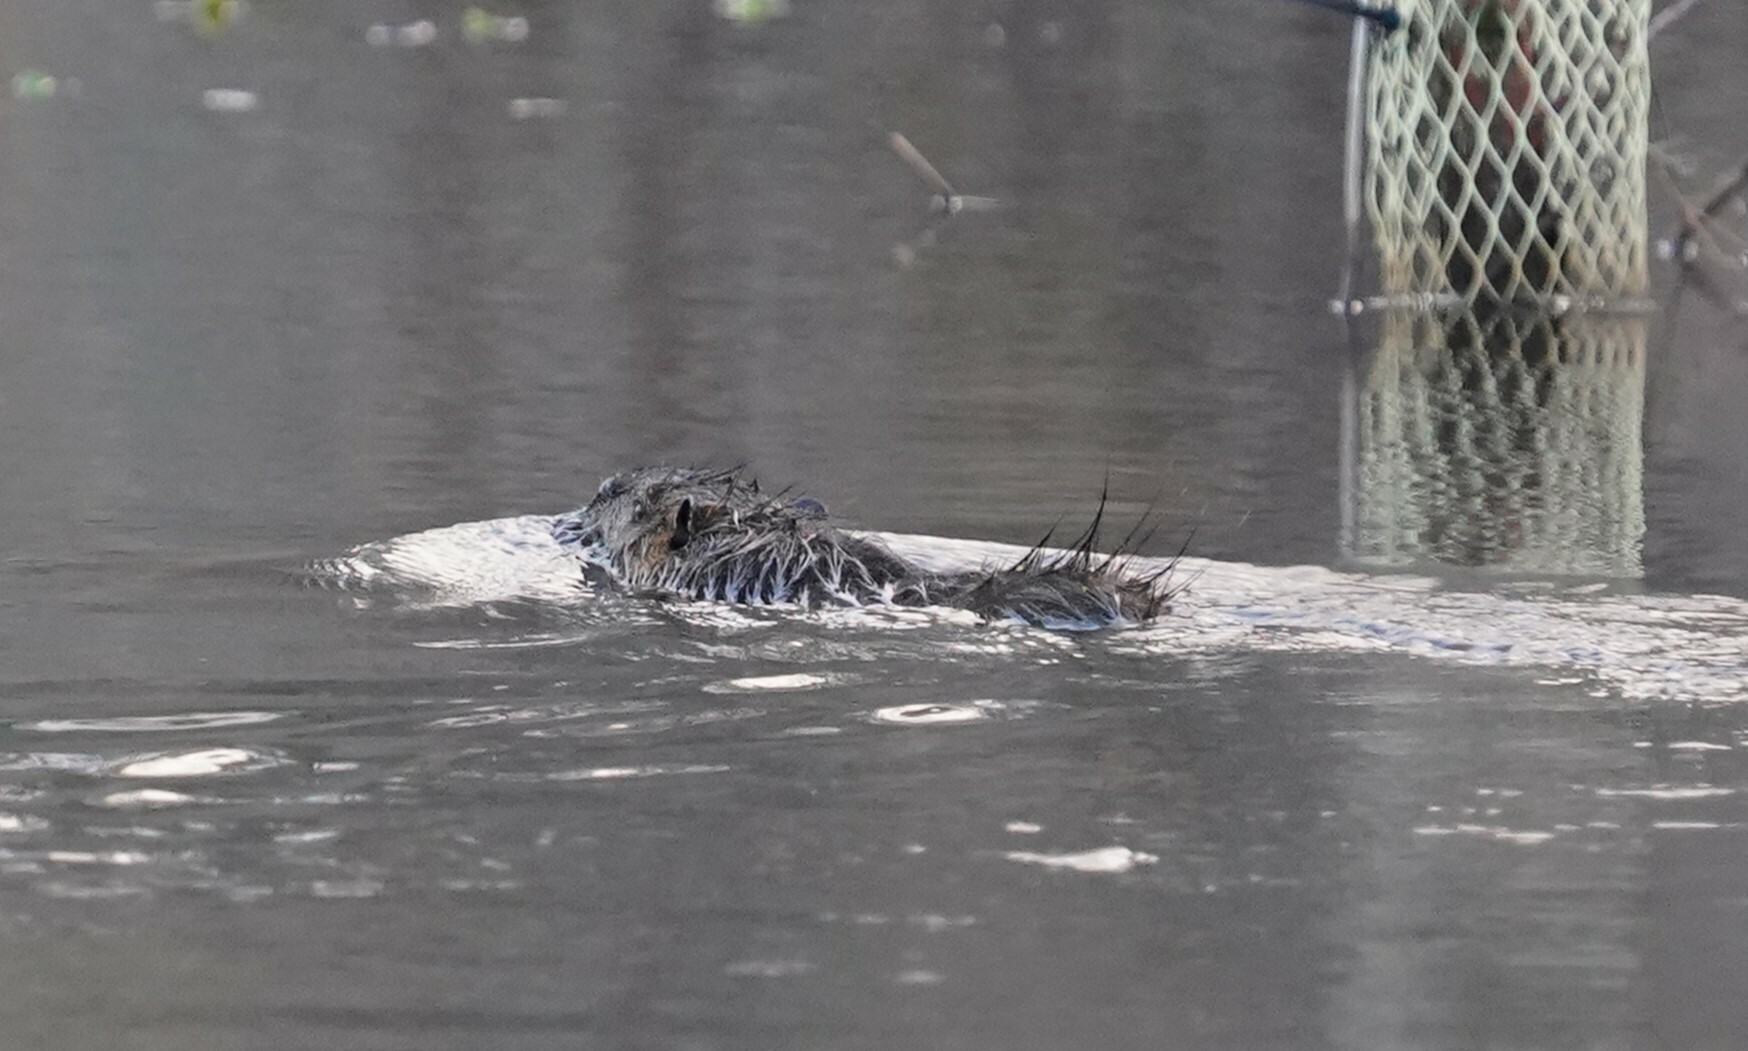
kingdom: Animalia
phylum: Chordata
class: Mammalia
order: Rodentia
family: Myocastoridae
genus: Myocastor
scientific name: Myocastor coypus
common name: Coypu
